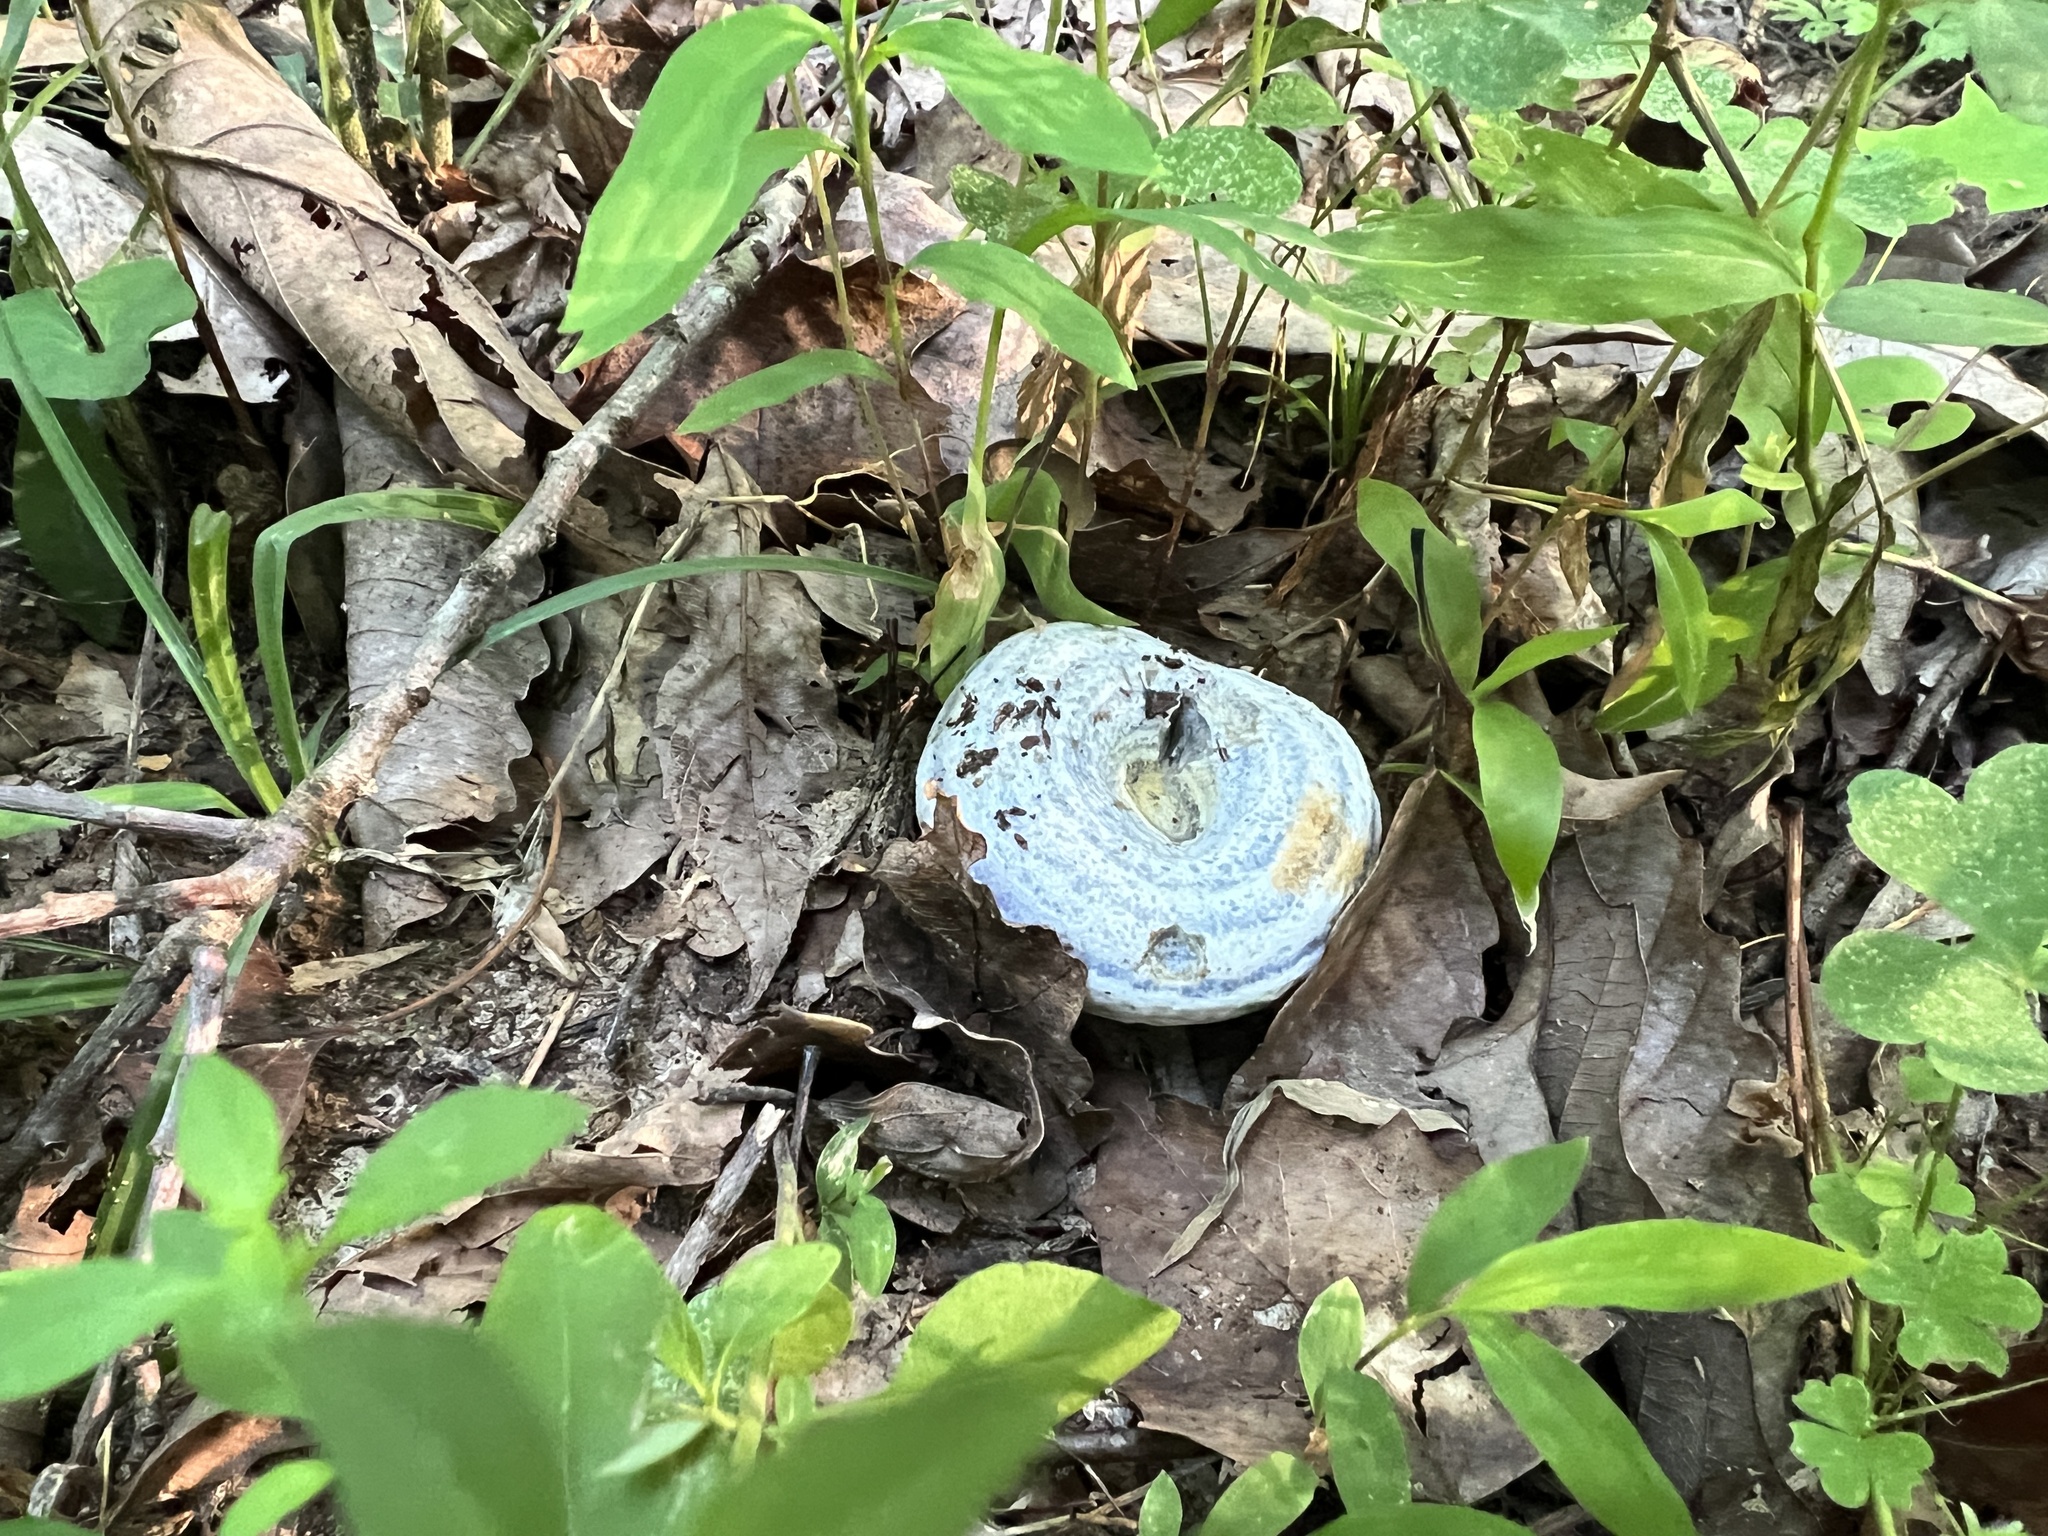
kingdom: Fungi
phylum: Basidiomycota
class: Agaricomycetes
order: Russulales
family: Russulaceae
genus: Lactarius
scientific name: Lactarius indigo
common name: Indigo milk cap
